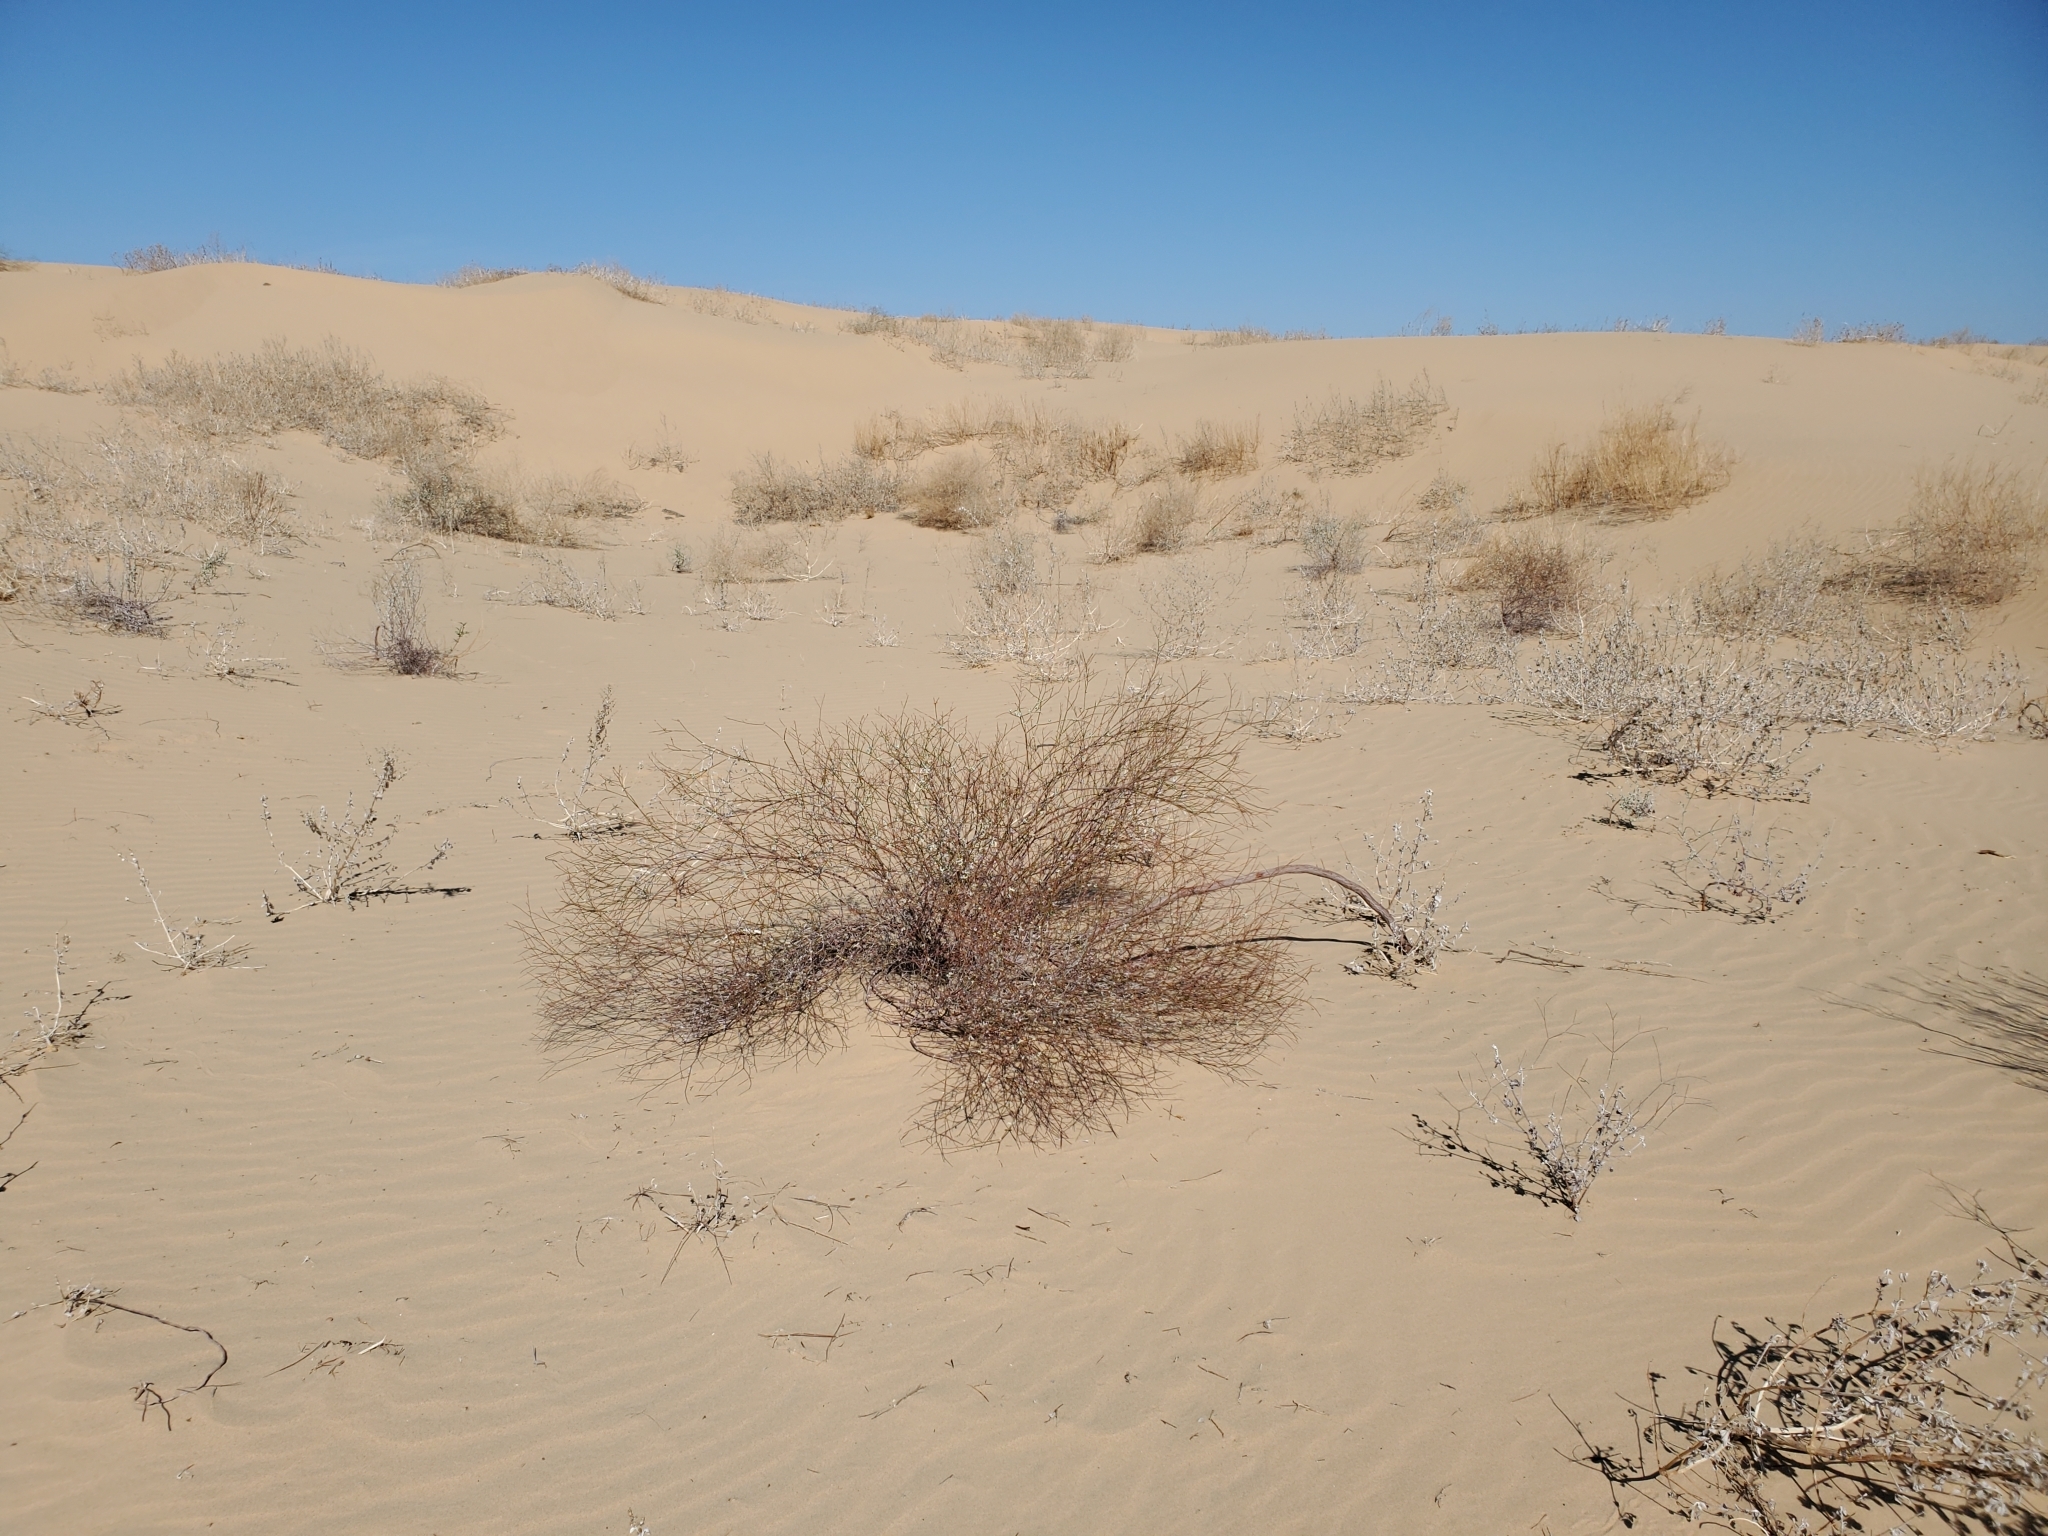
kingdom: Plantae
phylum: Tracheophyta
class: Magnoliopsida
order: Caryophyllales
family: Polygonaceae
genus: Eriogonum
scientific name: Eriogonum deserticola
